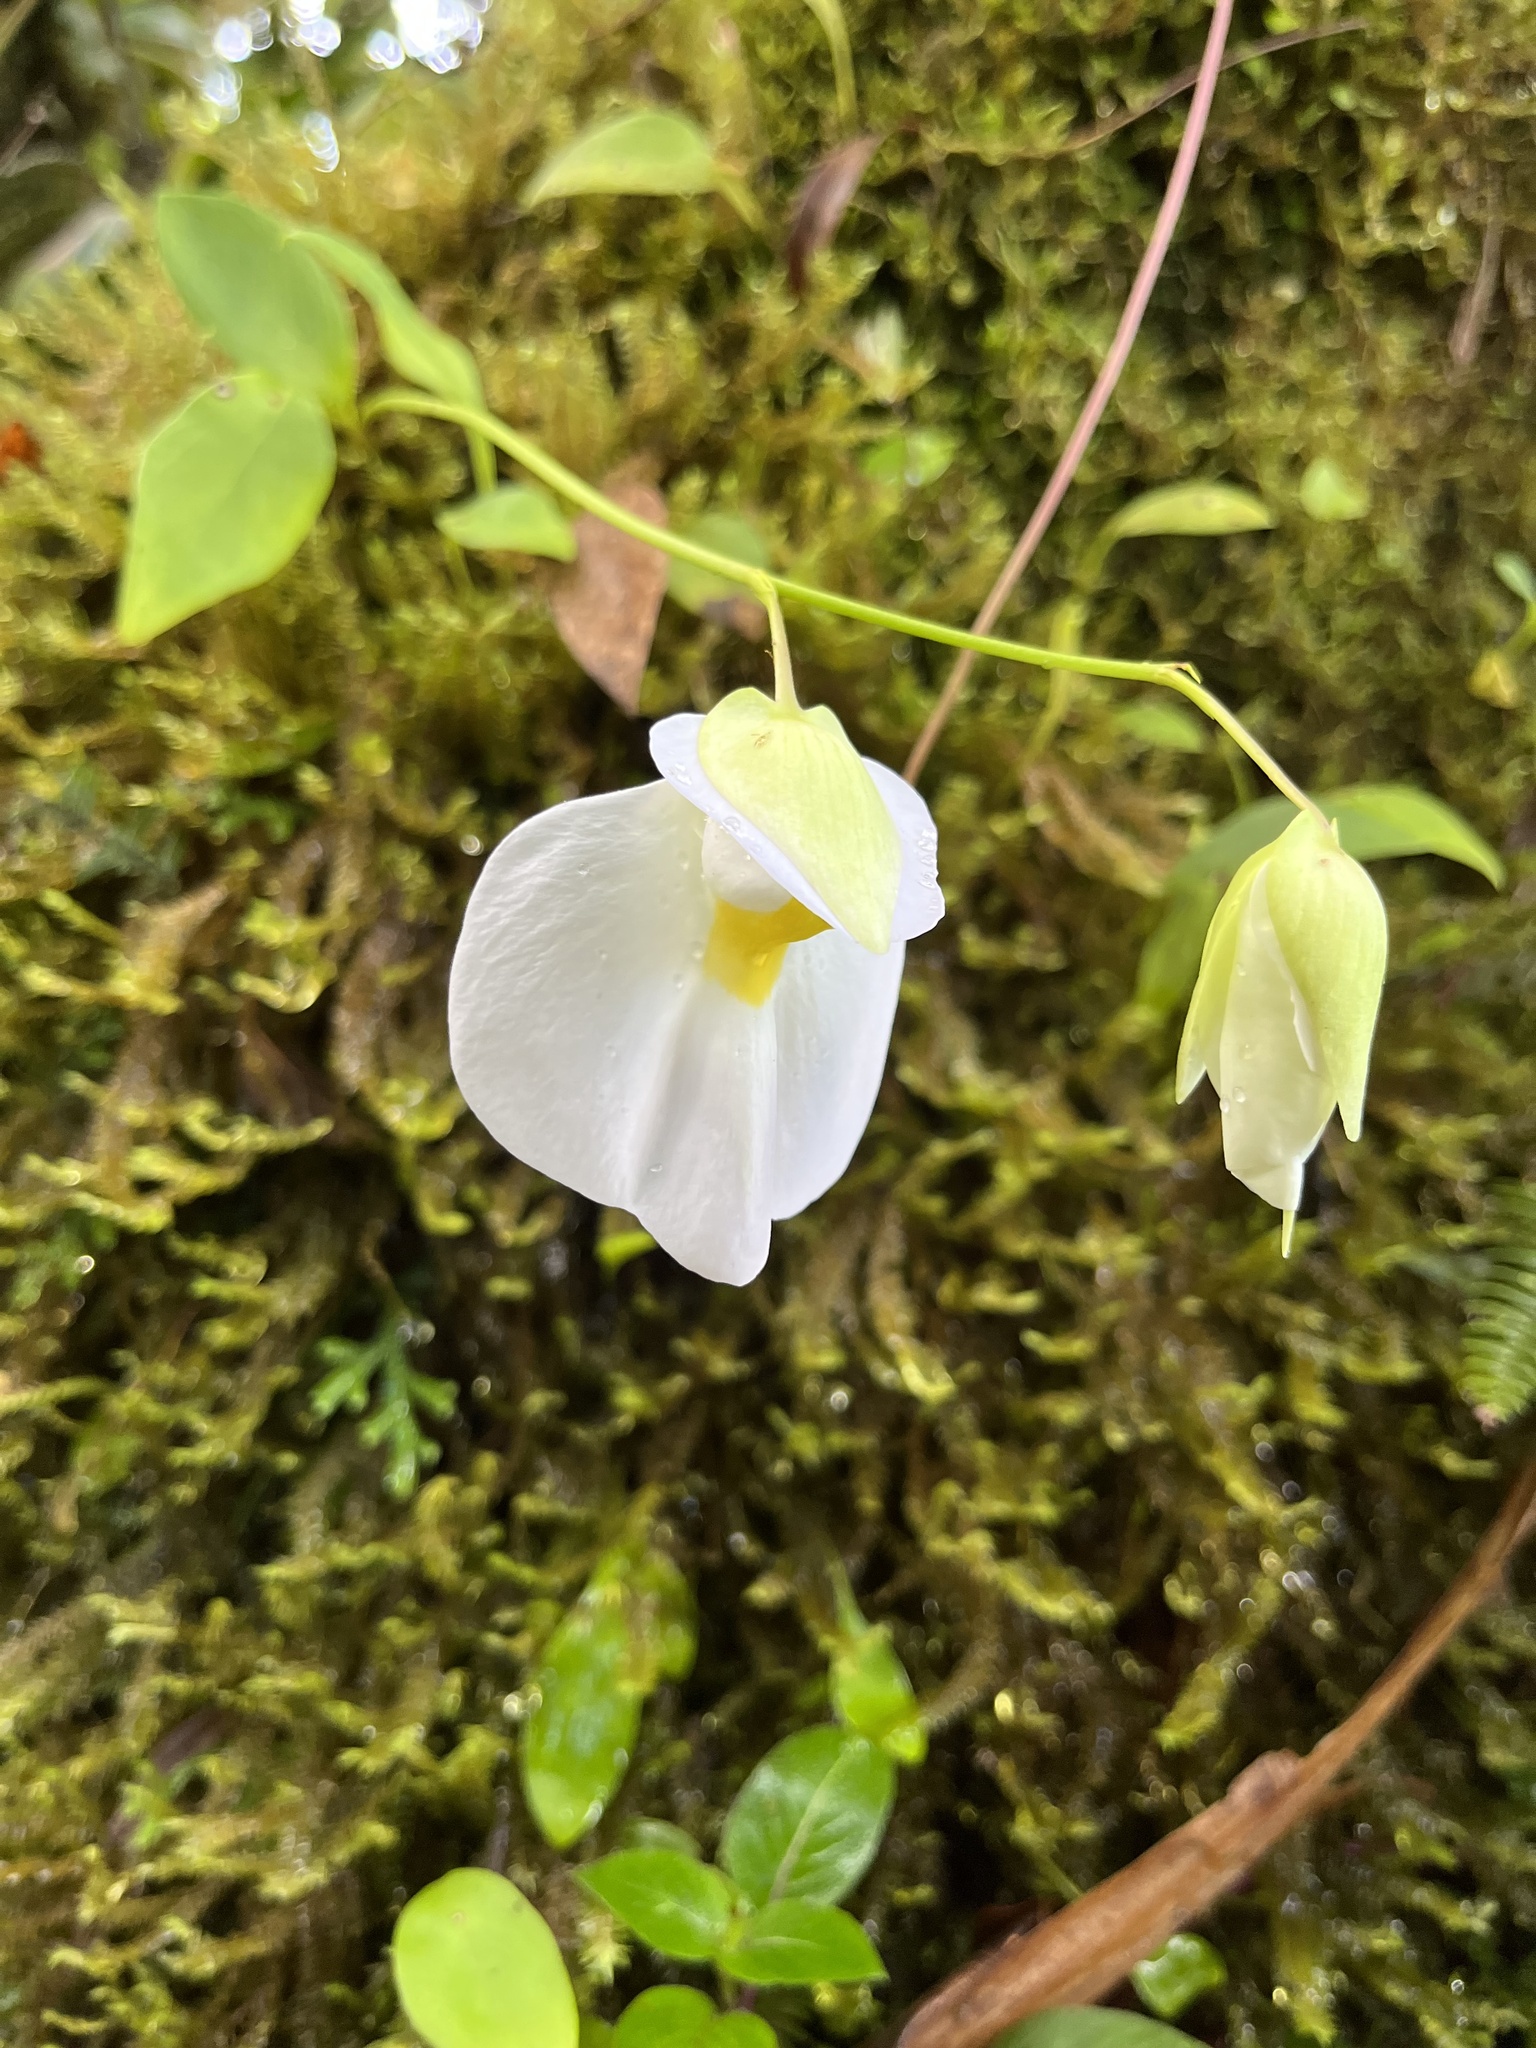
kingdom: Plantae
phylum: Tracheophyta
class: Magnoliopsida
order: Lamiales
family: Lentibulariaceae
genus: Utricularia
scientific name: Utricularia praetermissa
